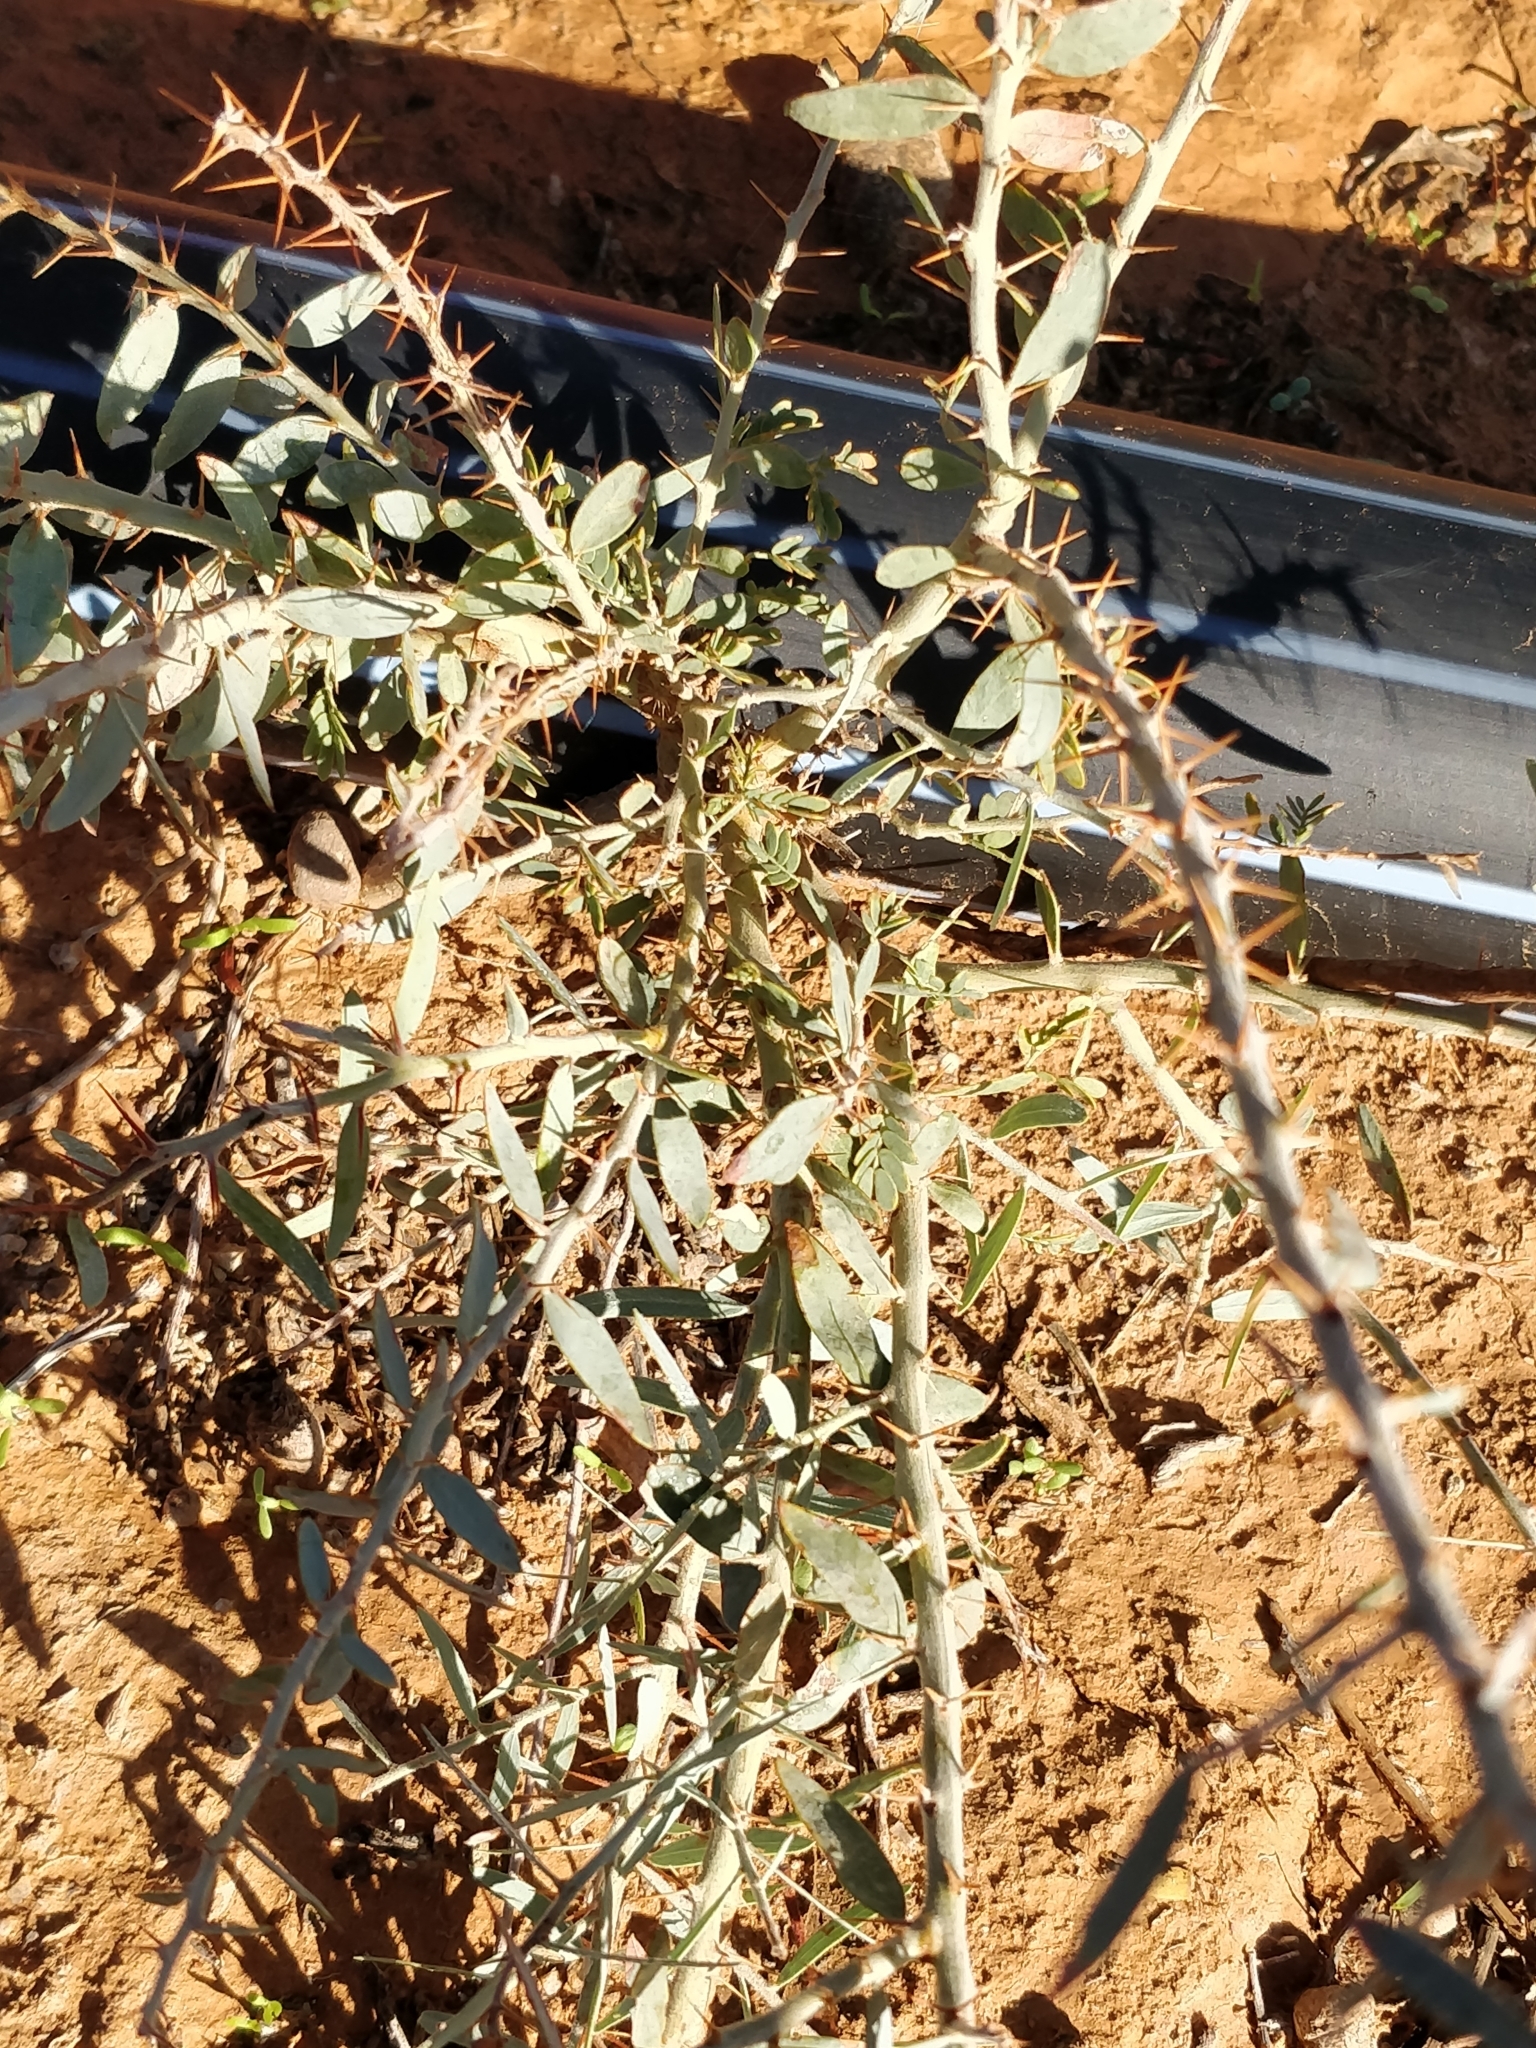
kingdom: Plantae
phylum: Tracheophyta
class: Magnoliopsida
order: Fabales
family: Fabaceae
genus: Acacia
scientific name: Acacia victoriae
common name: Bramble wattle
